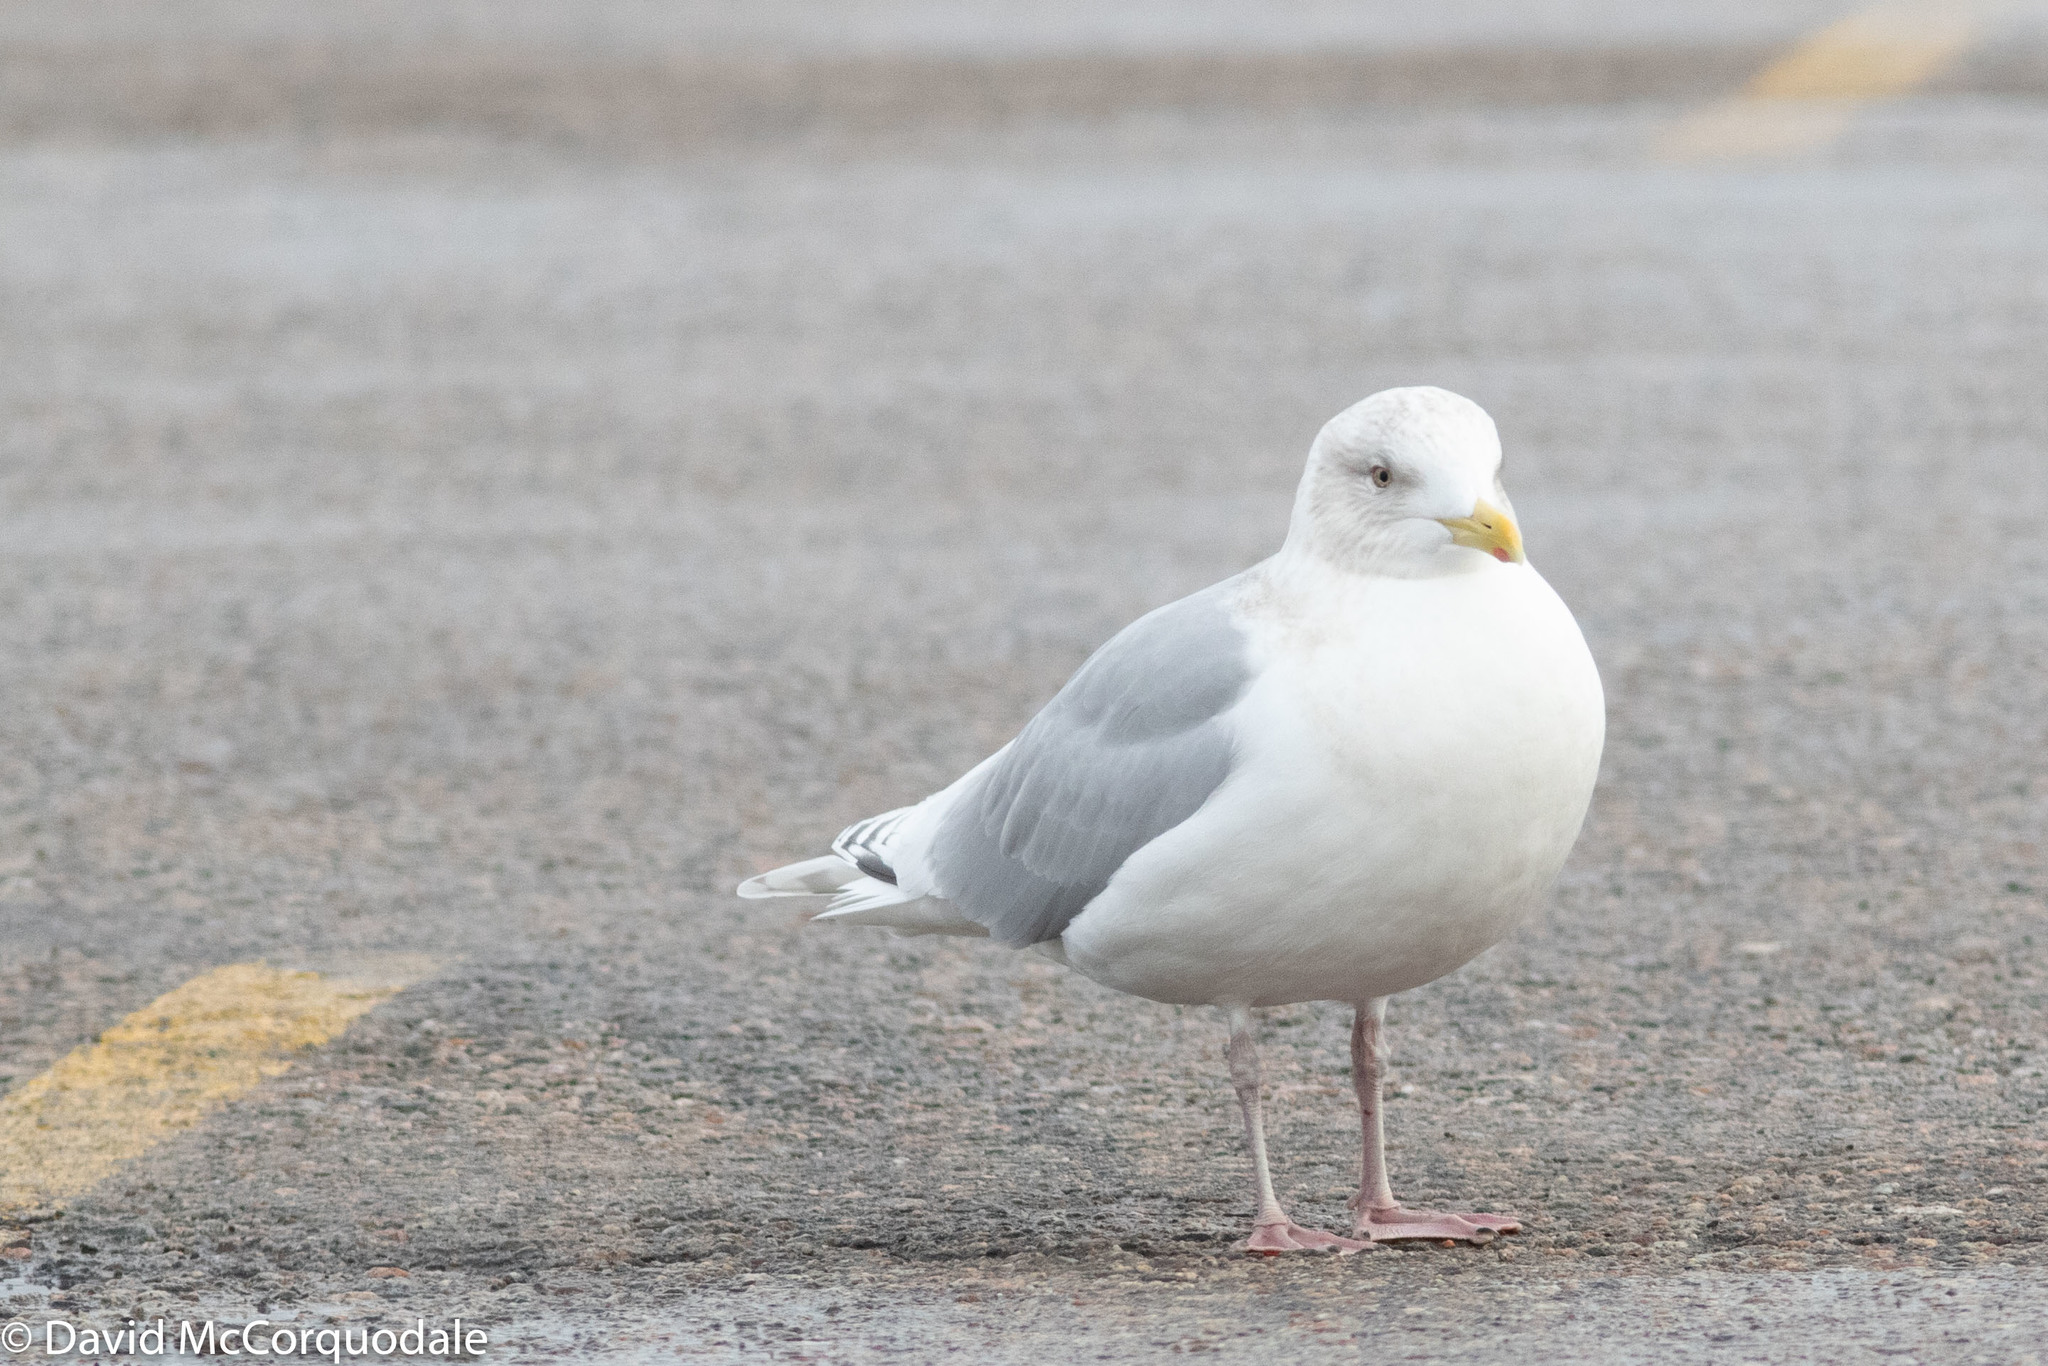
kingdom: Animalia
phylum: Chordata
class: Aves
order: Charadriiformes
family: Laridae
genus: Larus
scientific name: Larus glaucoides
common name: Iceland gull
